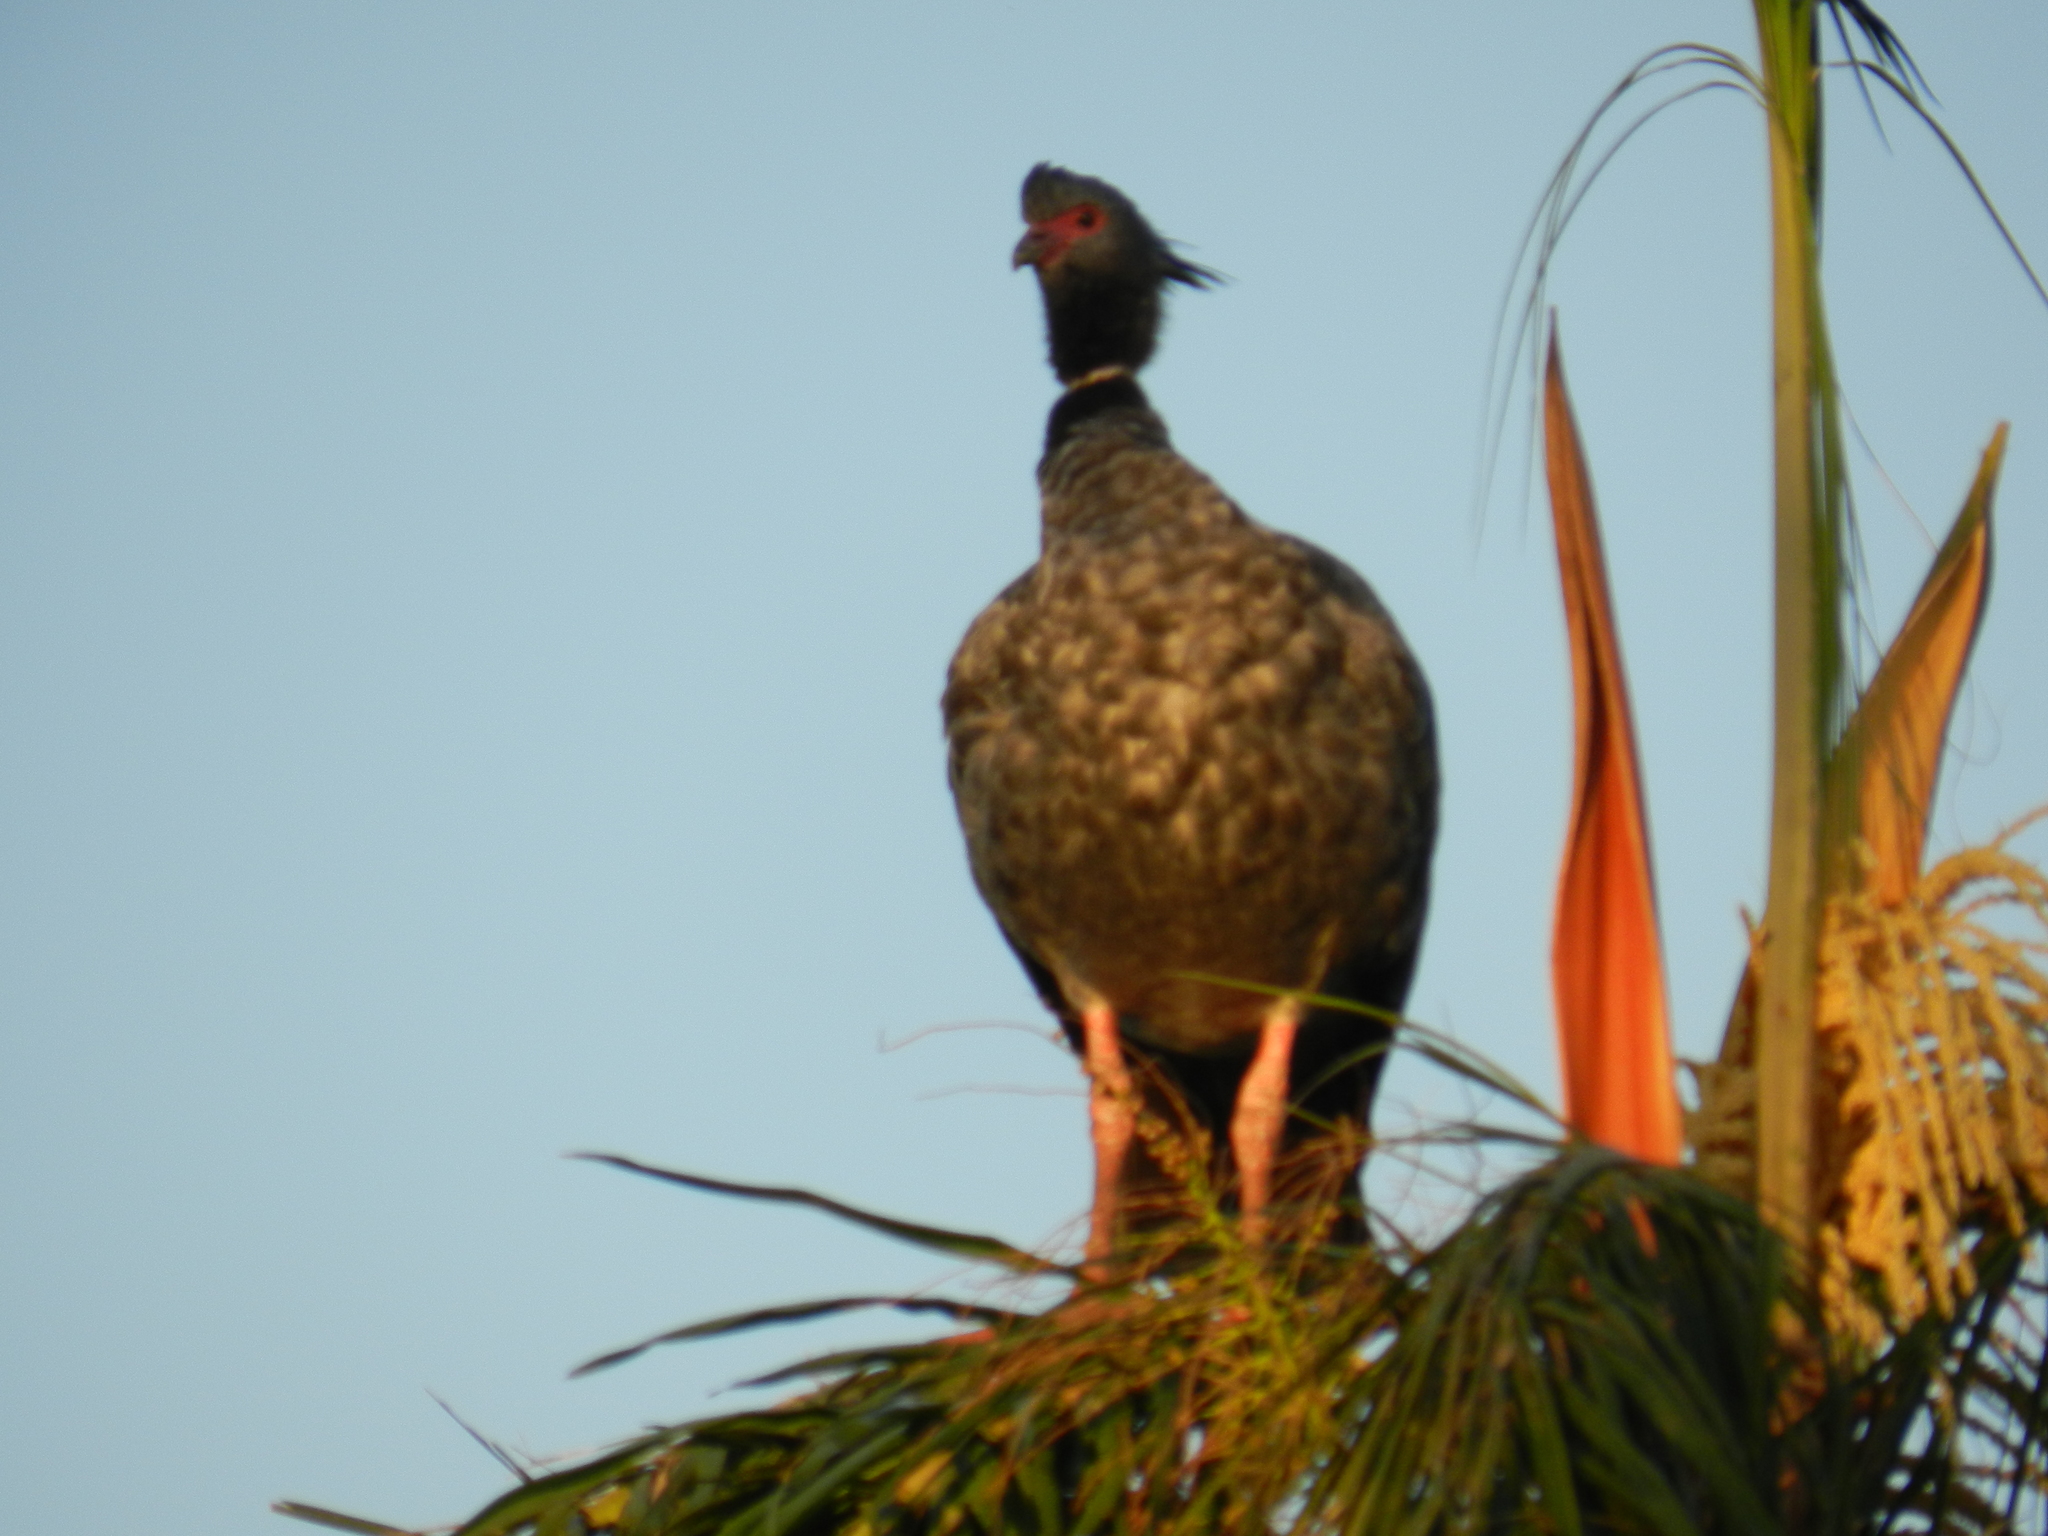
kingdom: Animalia
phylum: Chordata
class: Aves
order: Anseriformes
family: Anhimidae
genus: Chauna
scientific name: Chauna torquata
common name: Southern screamer
